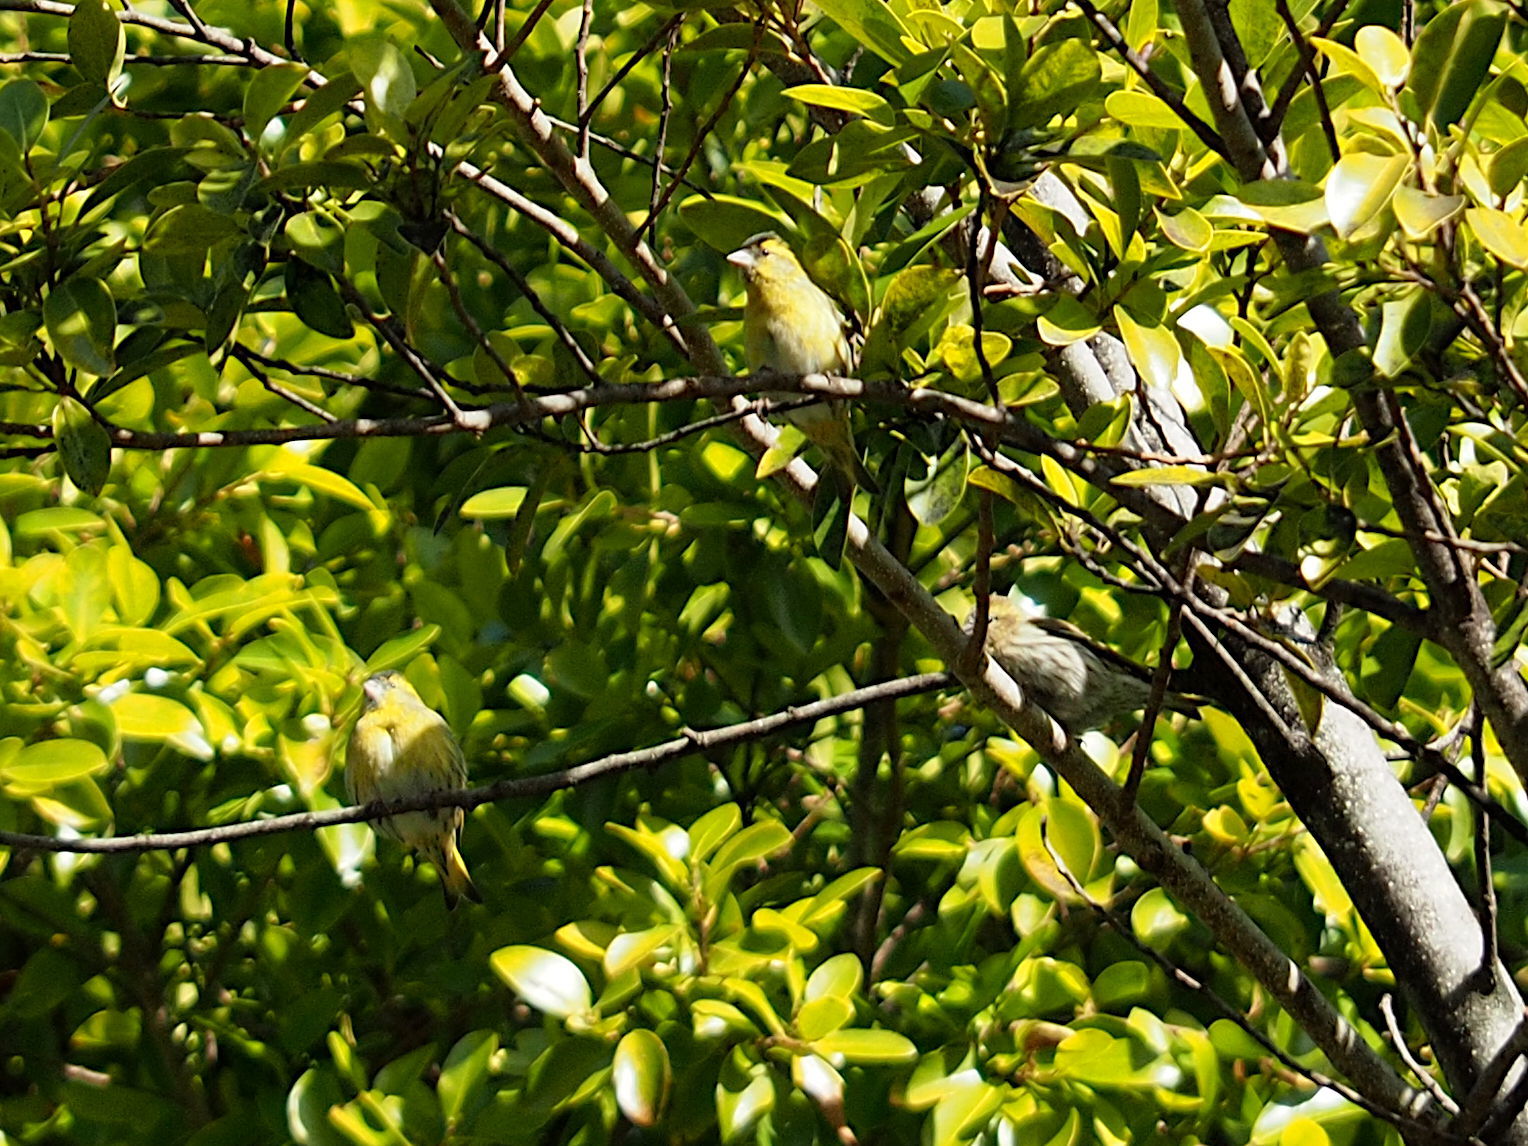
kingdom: Animalia
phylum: Chordata
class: Aves
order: Passeriformes
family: Fringillidae
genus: Spinus
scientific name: Spinus spinus
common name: Eurasian siskin
